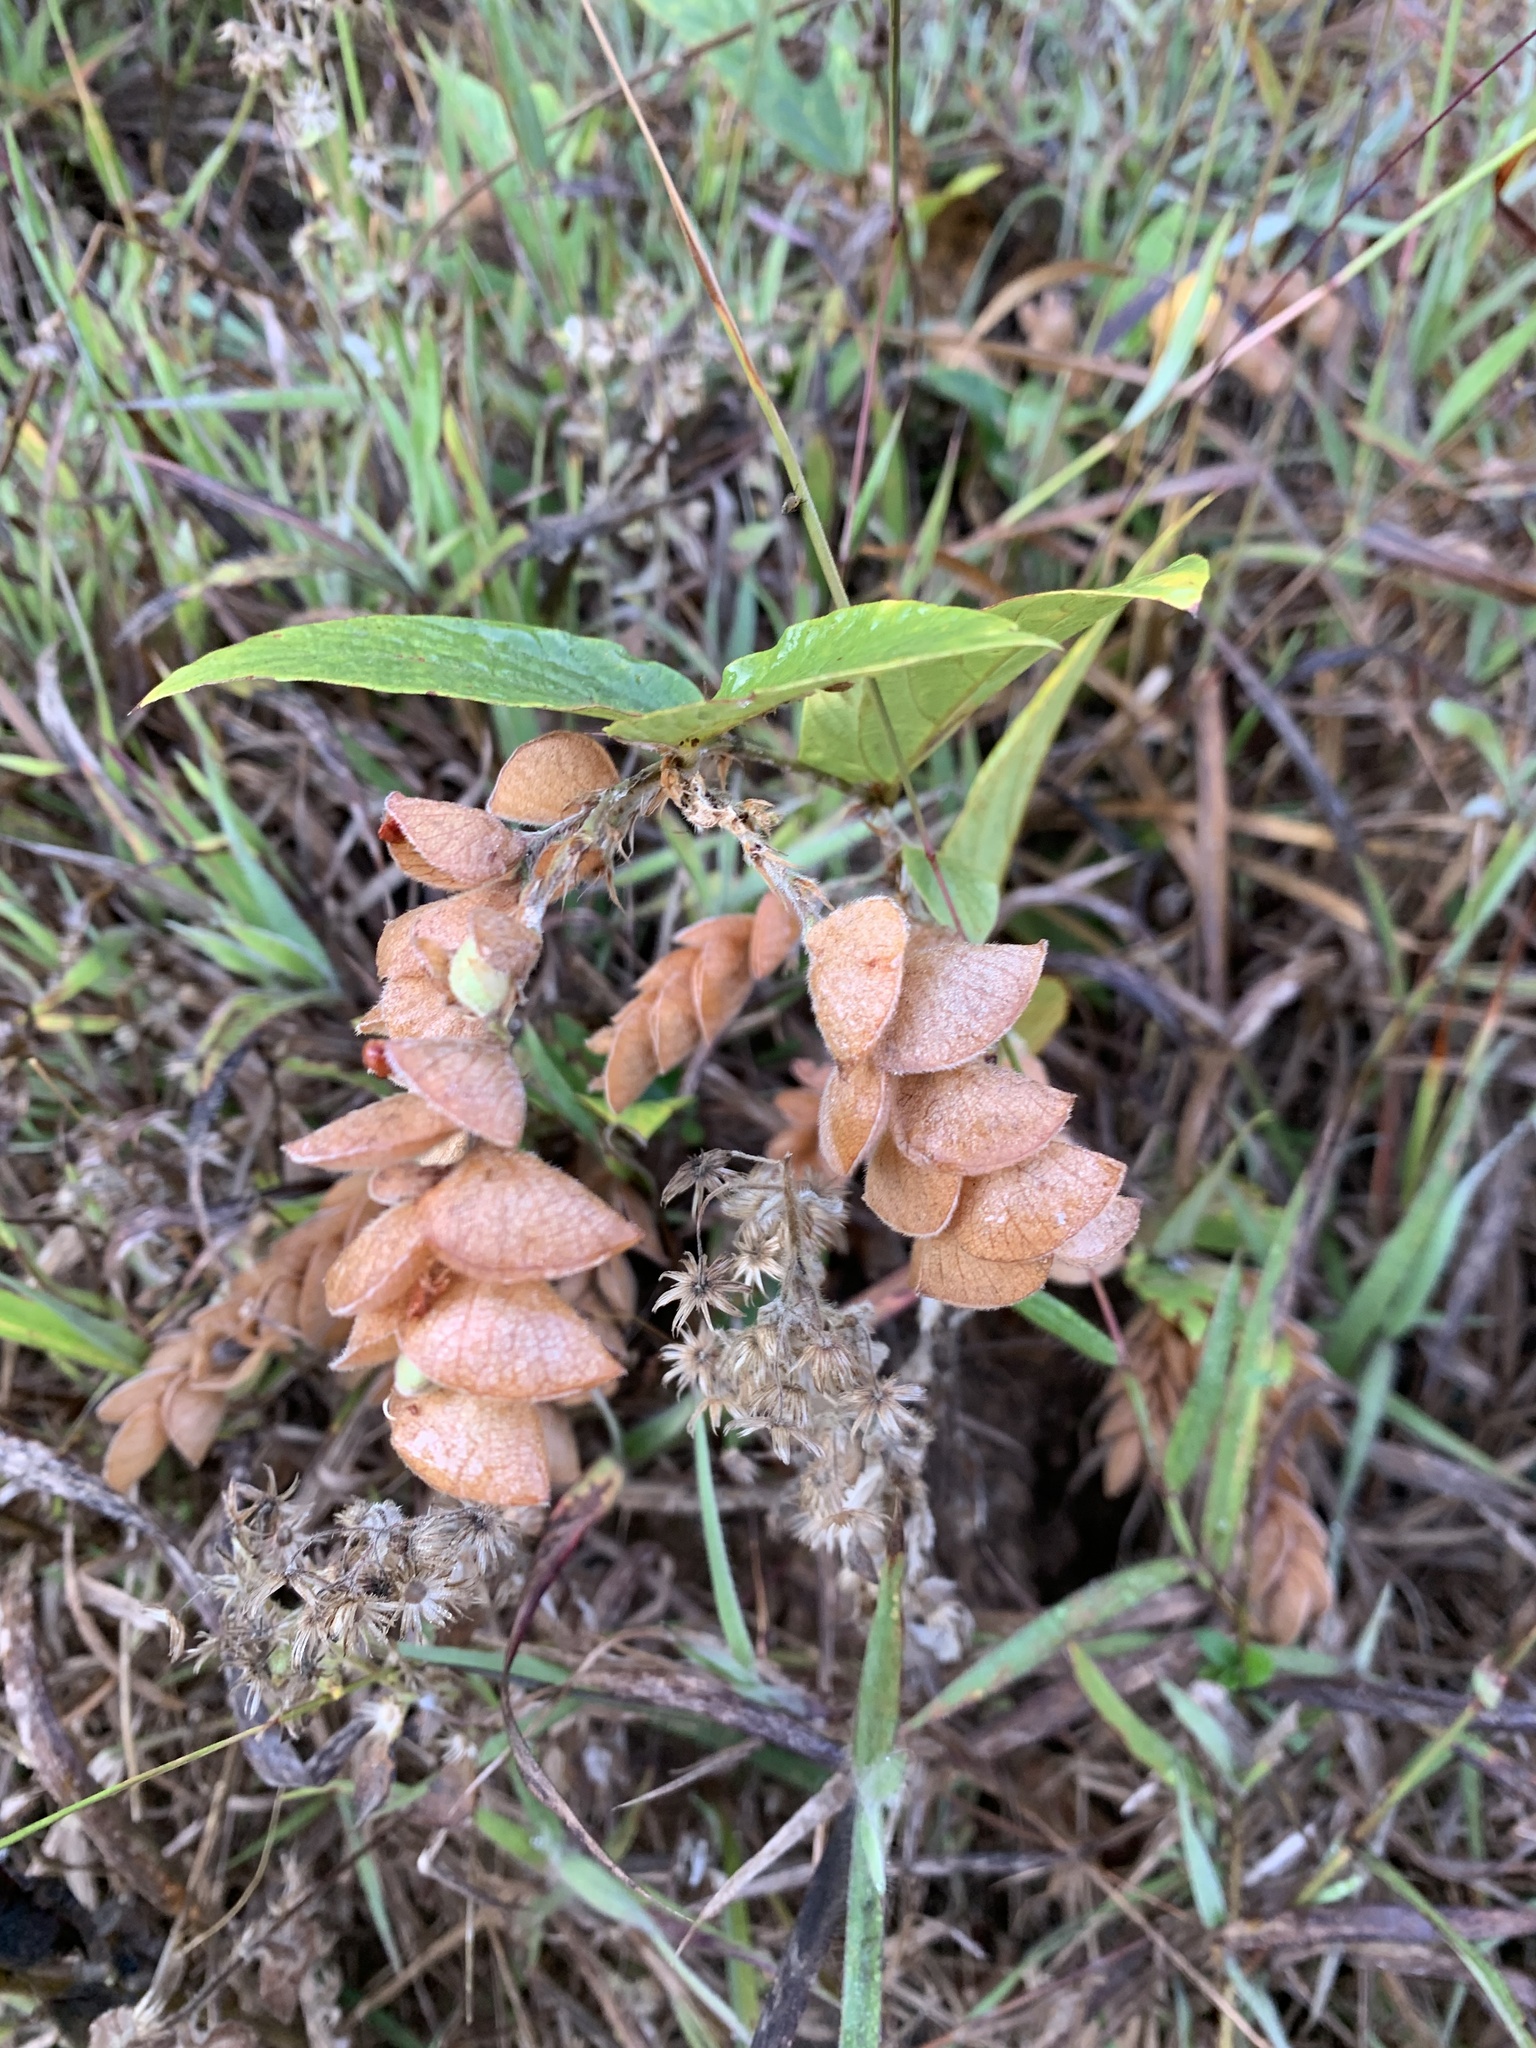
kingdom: Plantae
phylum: Tracheophyta
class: Magnoliopsida
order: Fabales
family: Fabaceae
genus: Flemingia
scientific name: Flemingia strobilifera
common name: Wild hops
